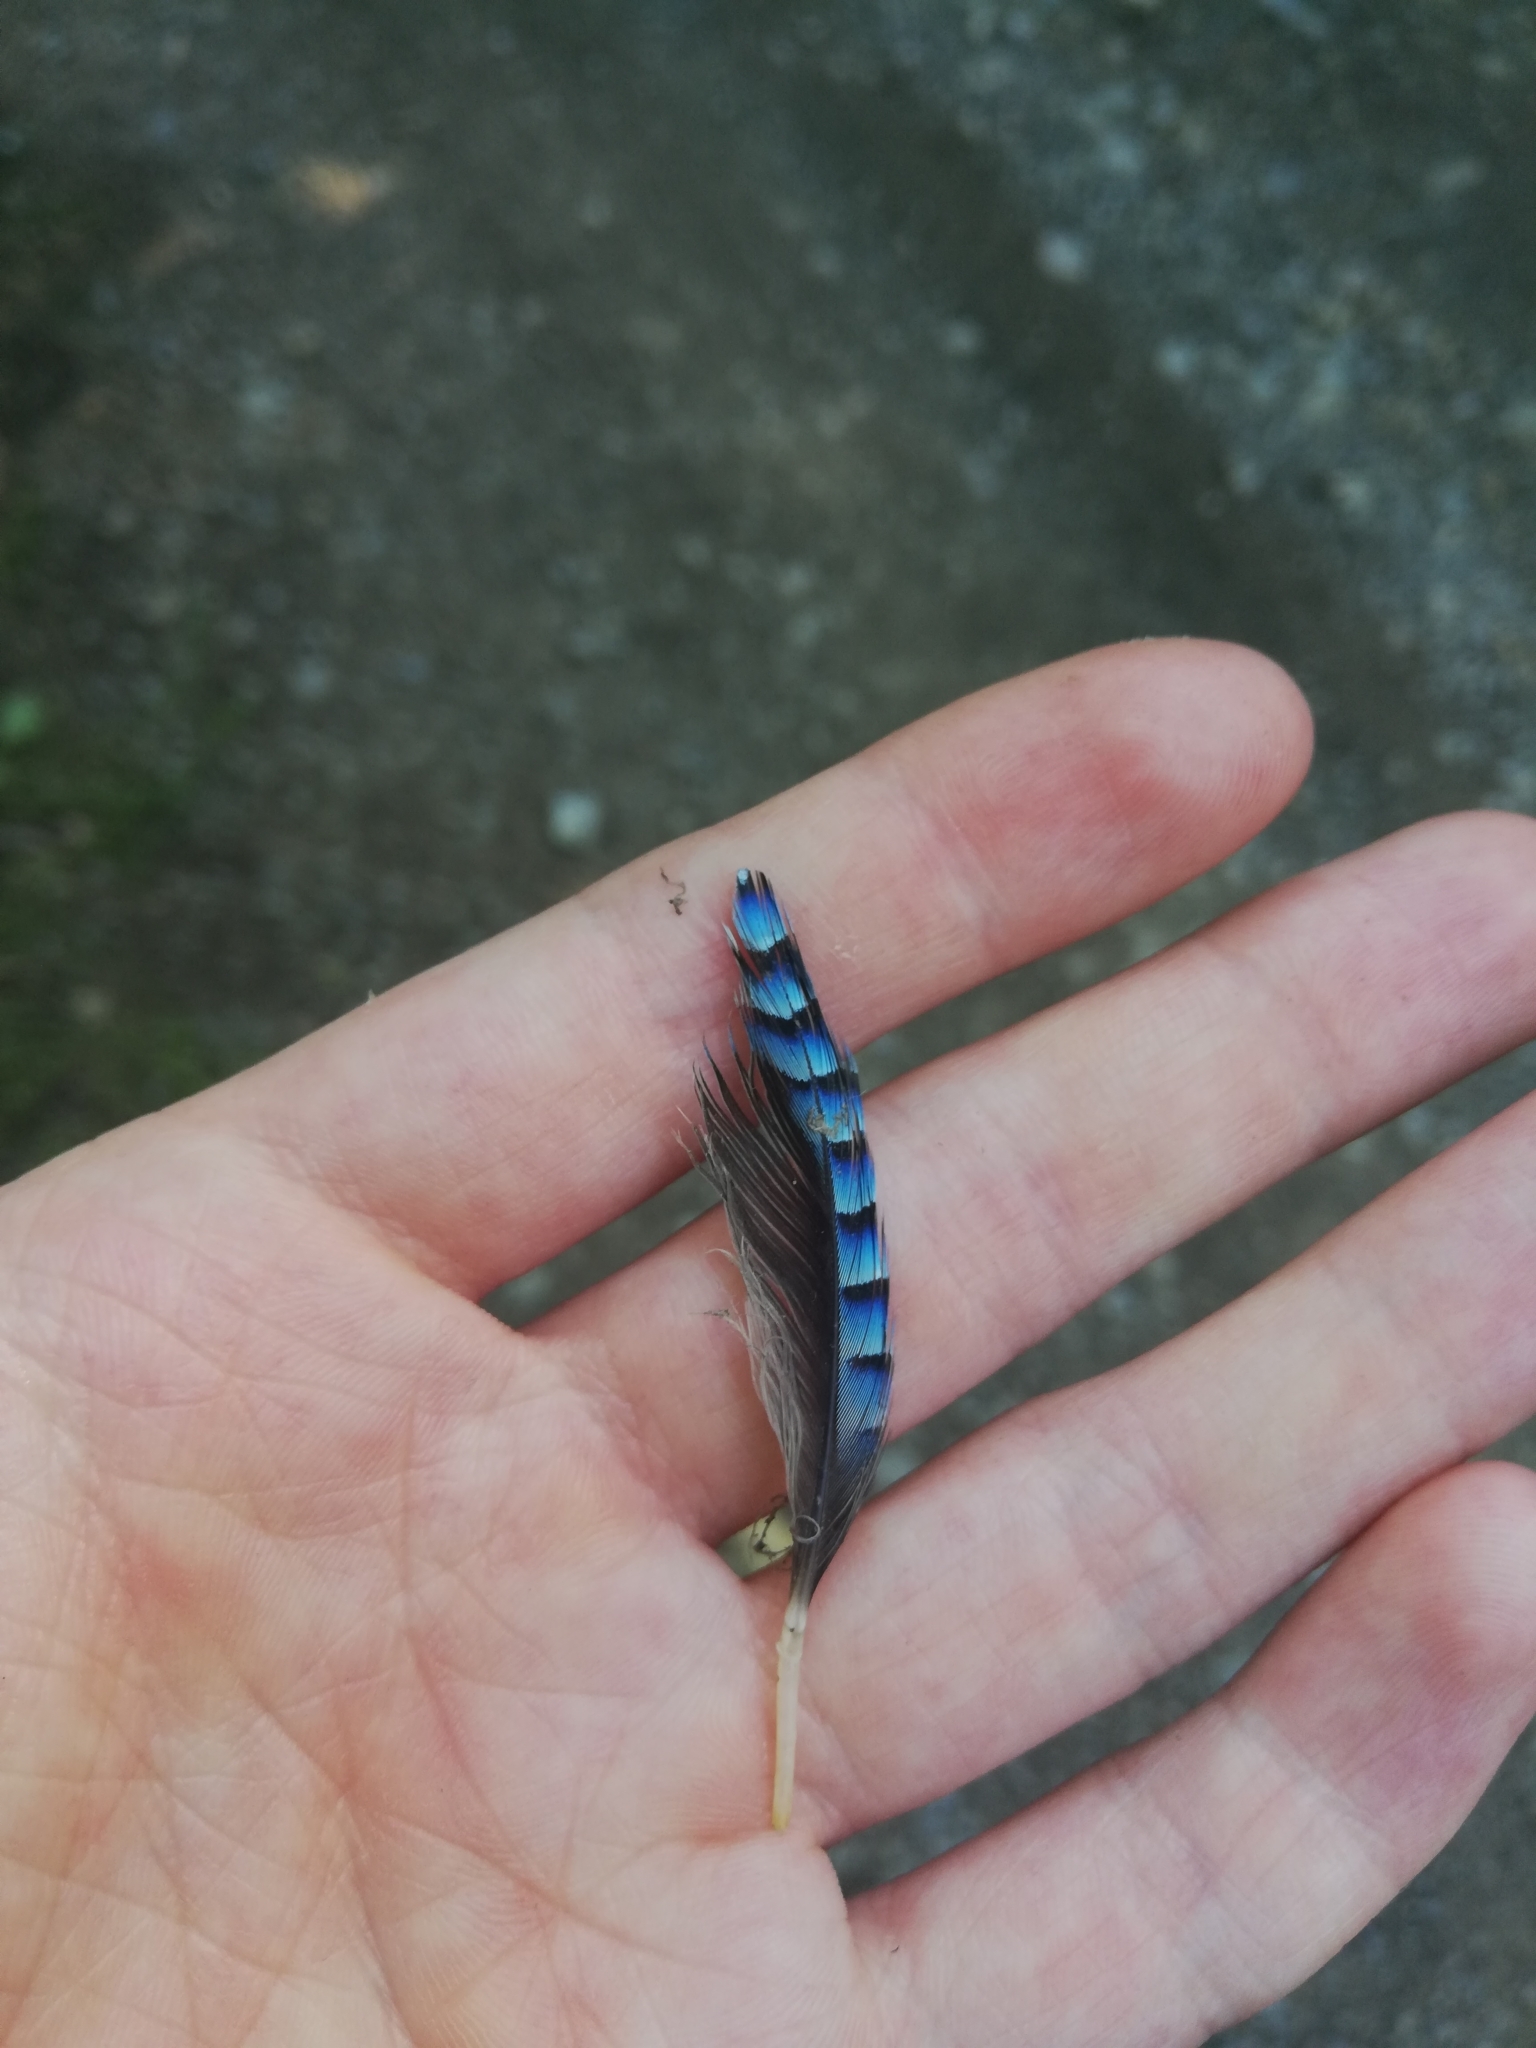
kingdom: Animalia
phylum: Chordata
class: Aves
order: Passeriformes
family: Corvidae
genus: Garrulus
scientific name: Garrulus glandarius
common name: Eurasian jay
